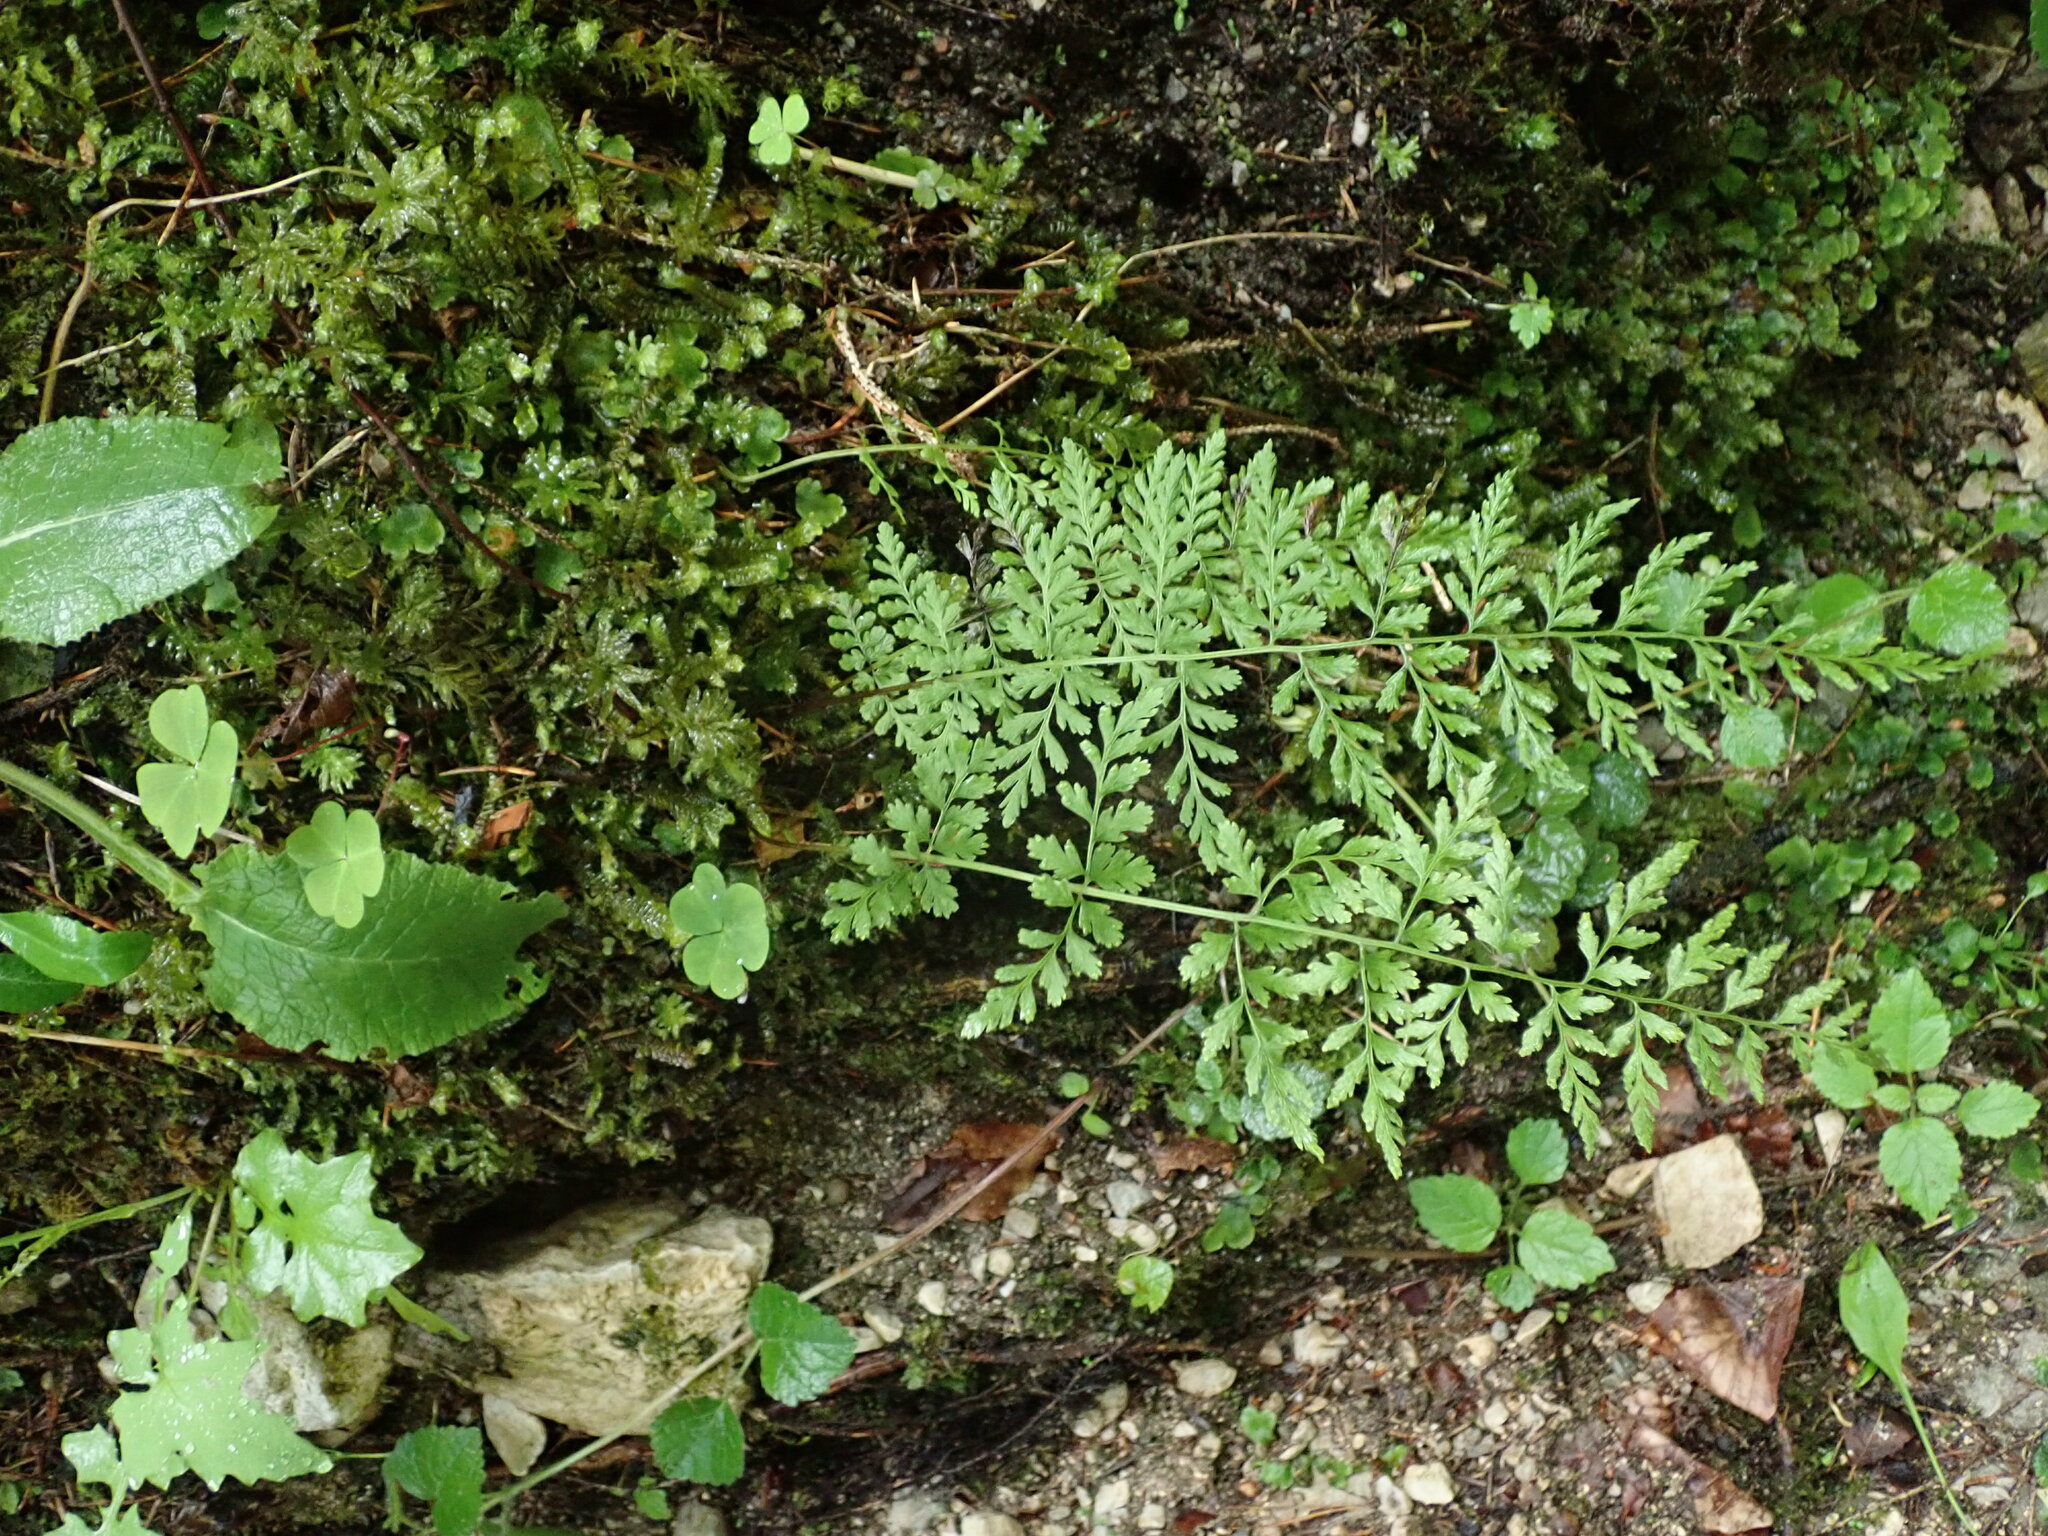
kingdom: Plantae
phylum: Tracheophyta
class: Polypodiopsida
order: Polypodiales
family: Cystopteridaceae
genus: Cystopteris
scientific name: Cystopteris fragilis
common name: Brittle bladder fern
